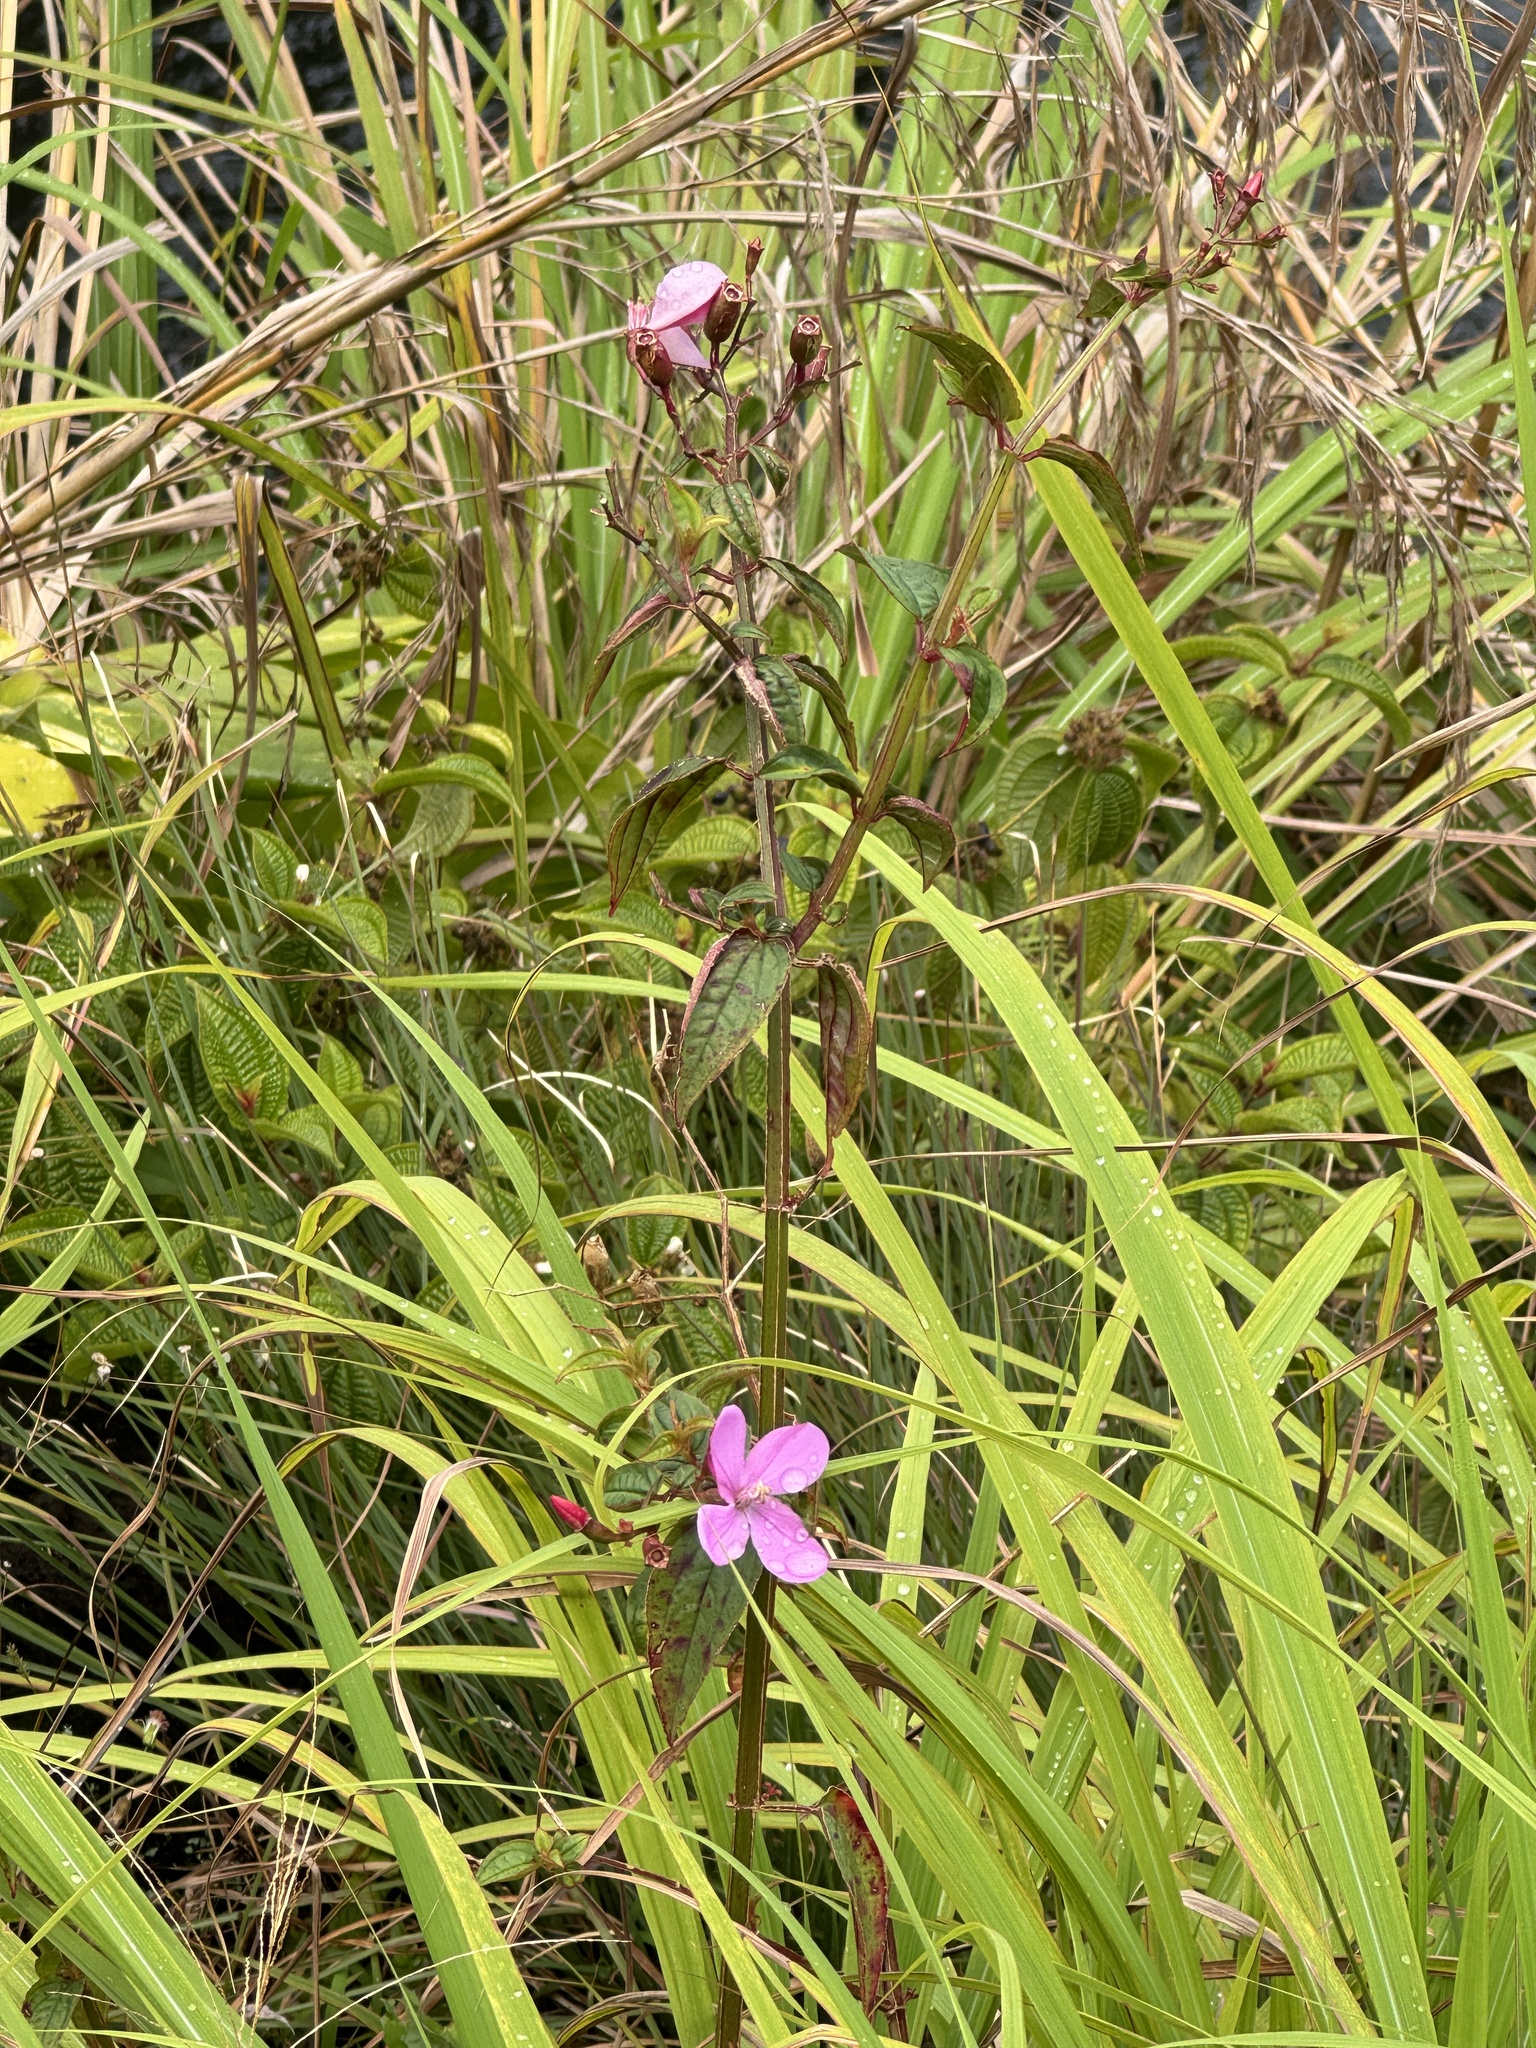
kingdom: Plantae
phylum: Tracheophyta
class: Magnoliopsida
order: Myrtales
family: Melastomataceae
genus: Chaetogastra
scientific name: Chaetogastra herbacea
